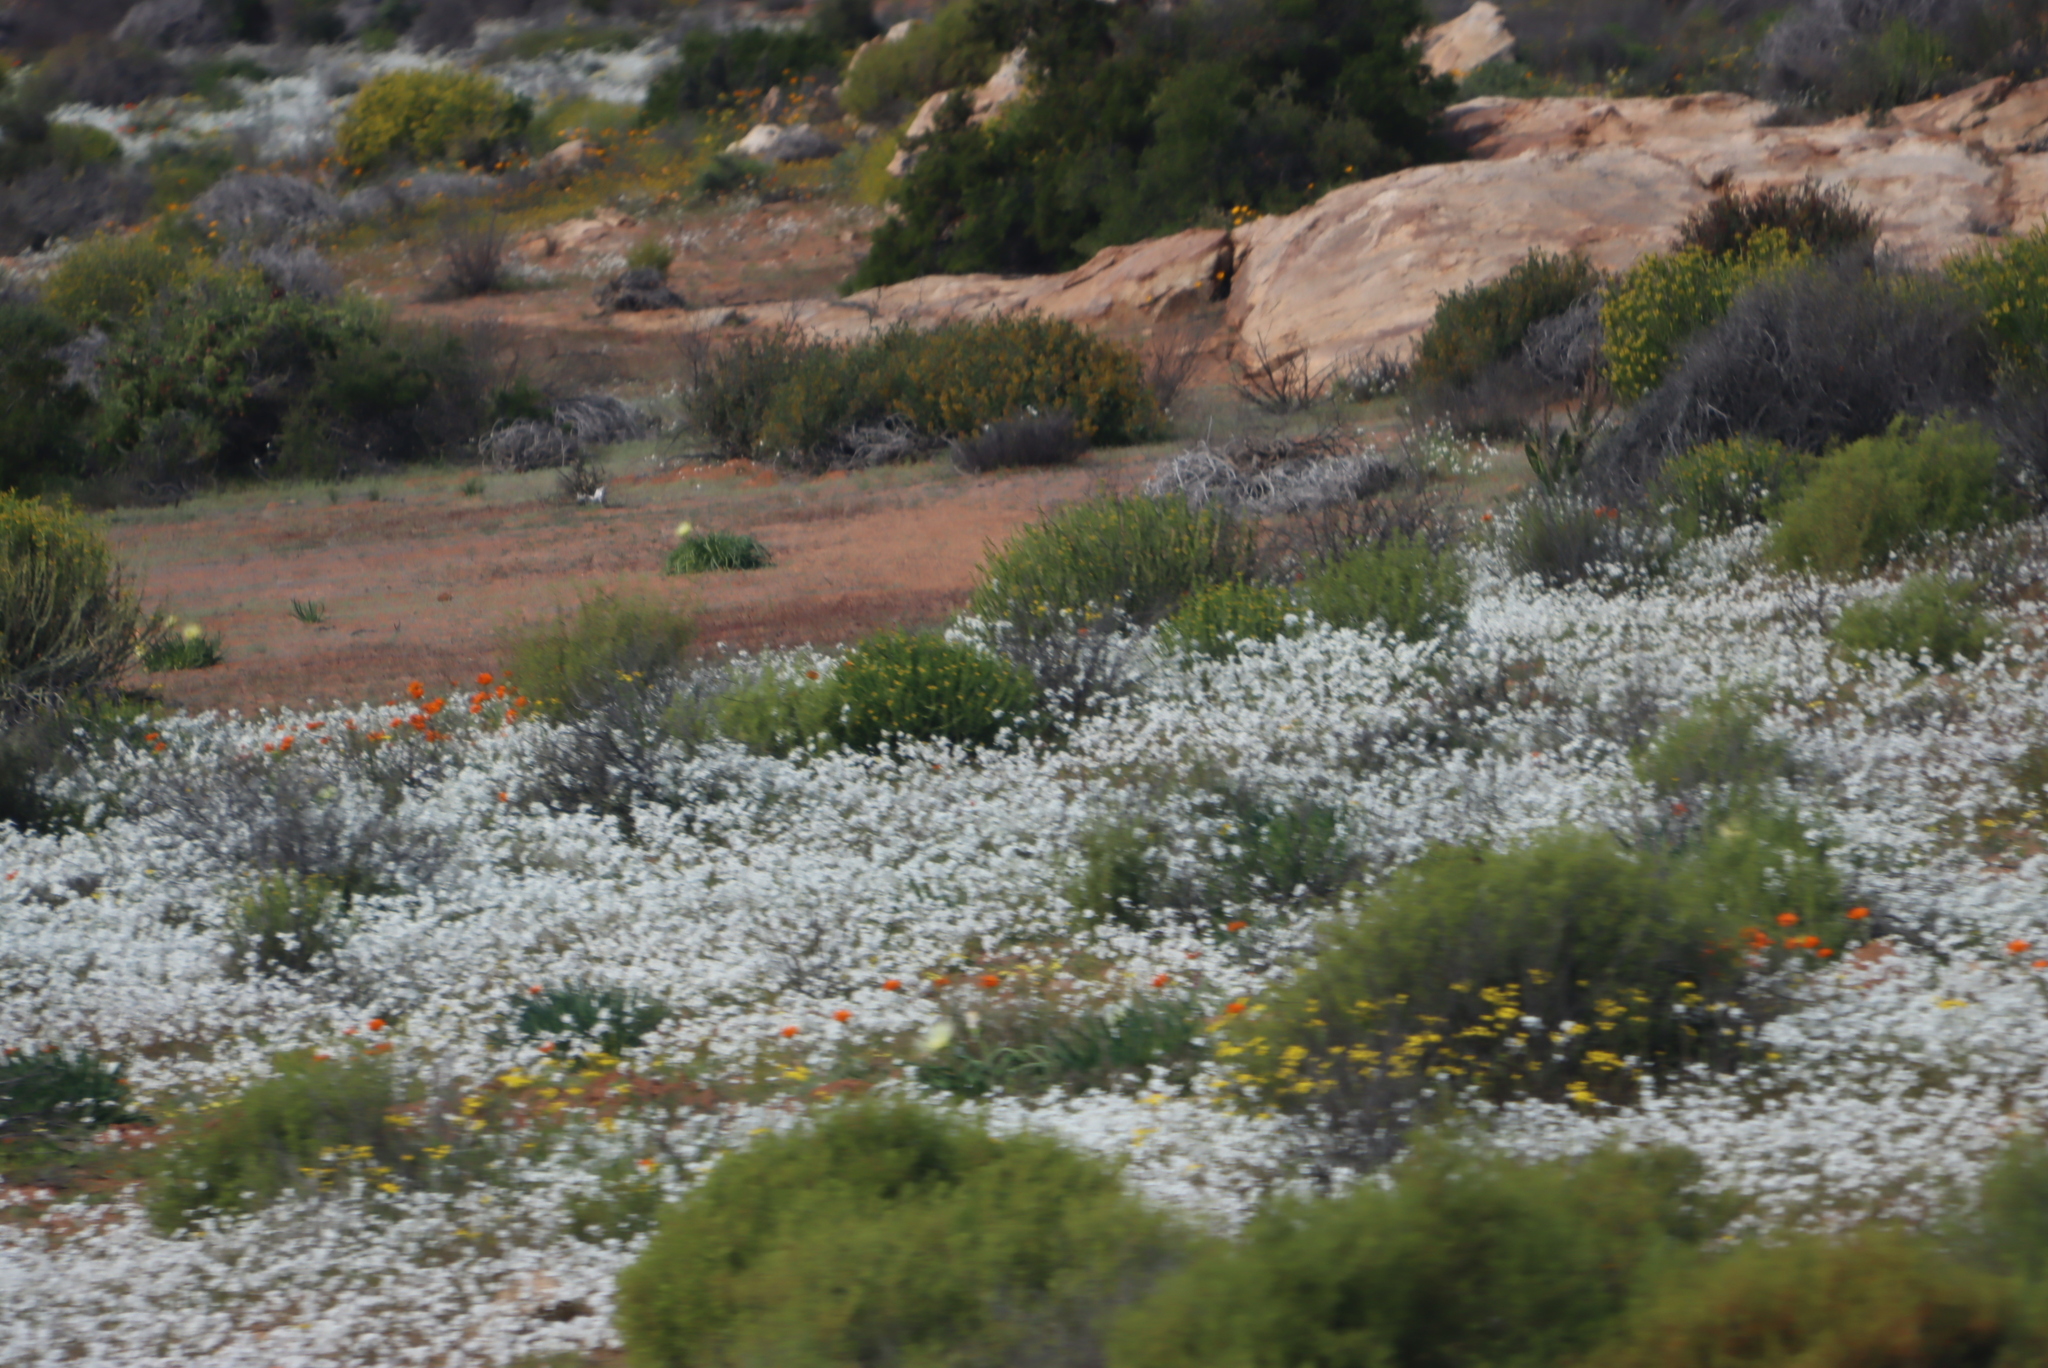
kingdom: Plantae
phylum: Tracheophyta
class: Magnoliopsida
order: Brassicales
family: Brassicaceae
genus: Heliophila
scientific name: Heliophila variabilis
